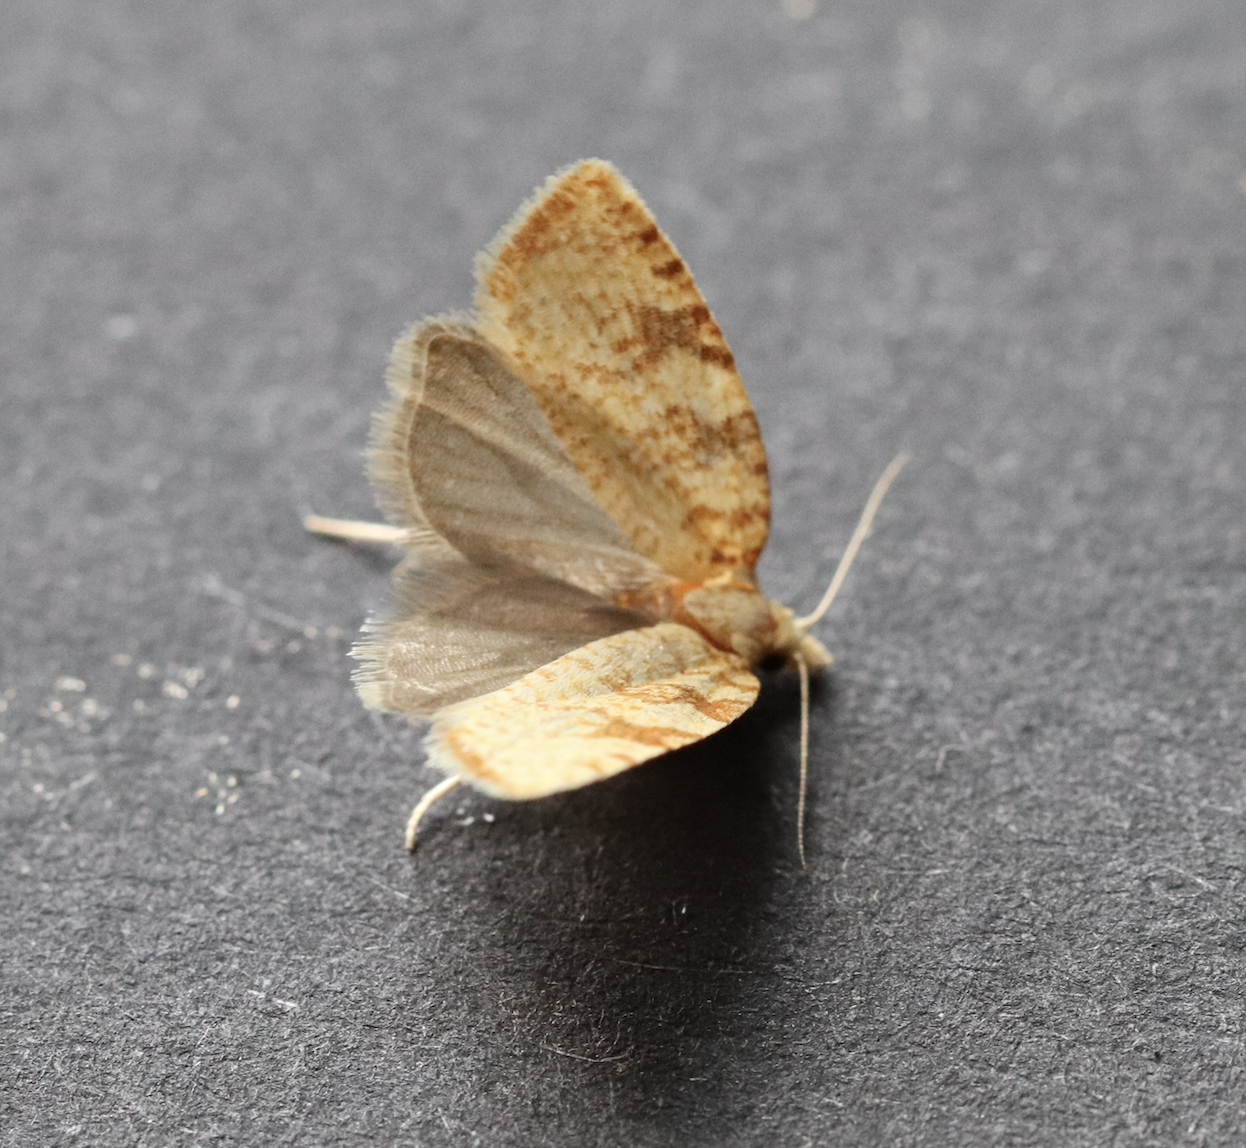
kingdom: Animalia
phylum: Arthropoda
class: Insecta
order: Lepidoptera
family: Tortricidae
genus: Aleimma
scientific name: Aleimma loeflingiana
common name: Yellow oak button
